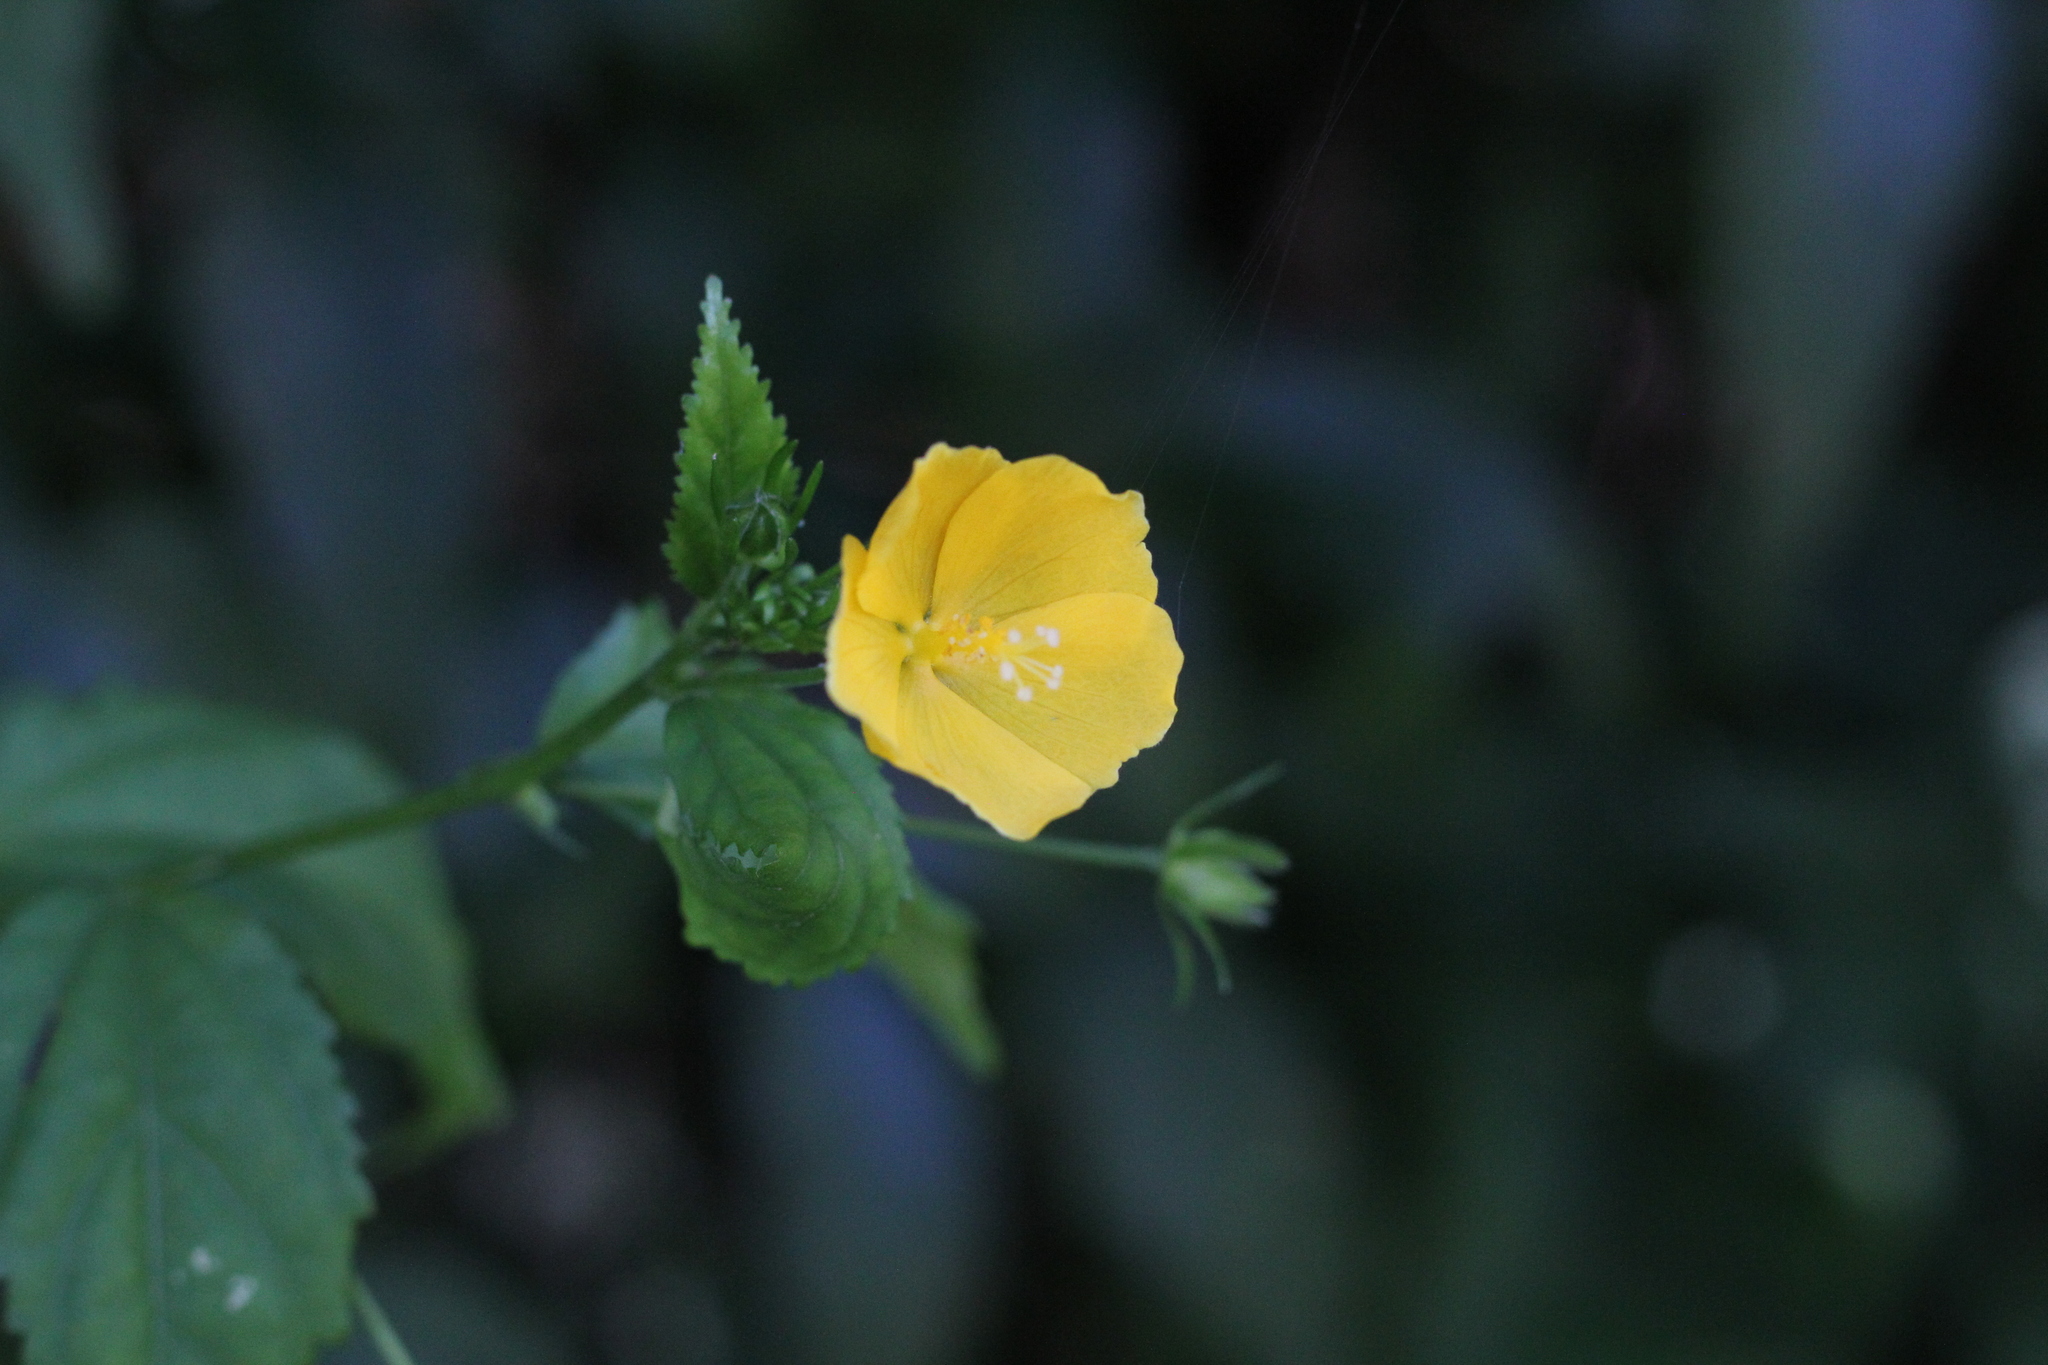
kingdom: Plantae
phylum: Tracheophyta
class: Magnoliopsida
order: Malvales
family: Malvaceae
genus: Pavonia
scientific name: Pavonia sepium
